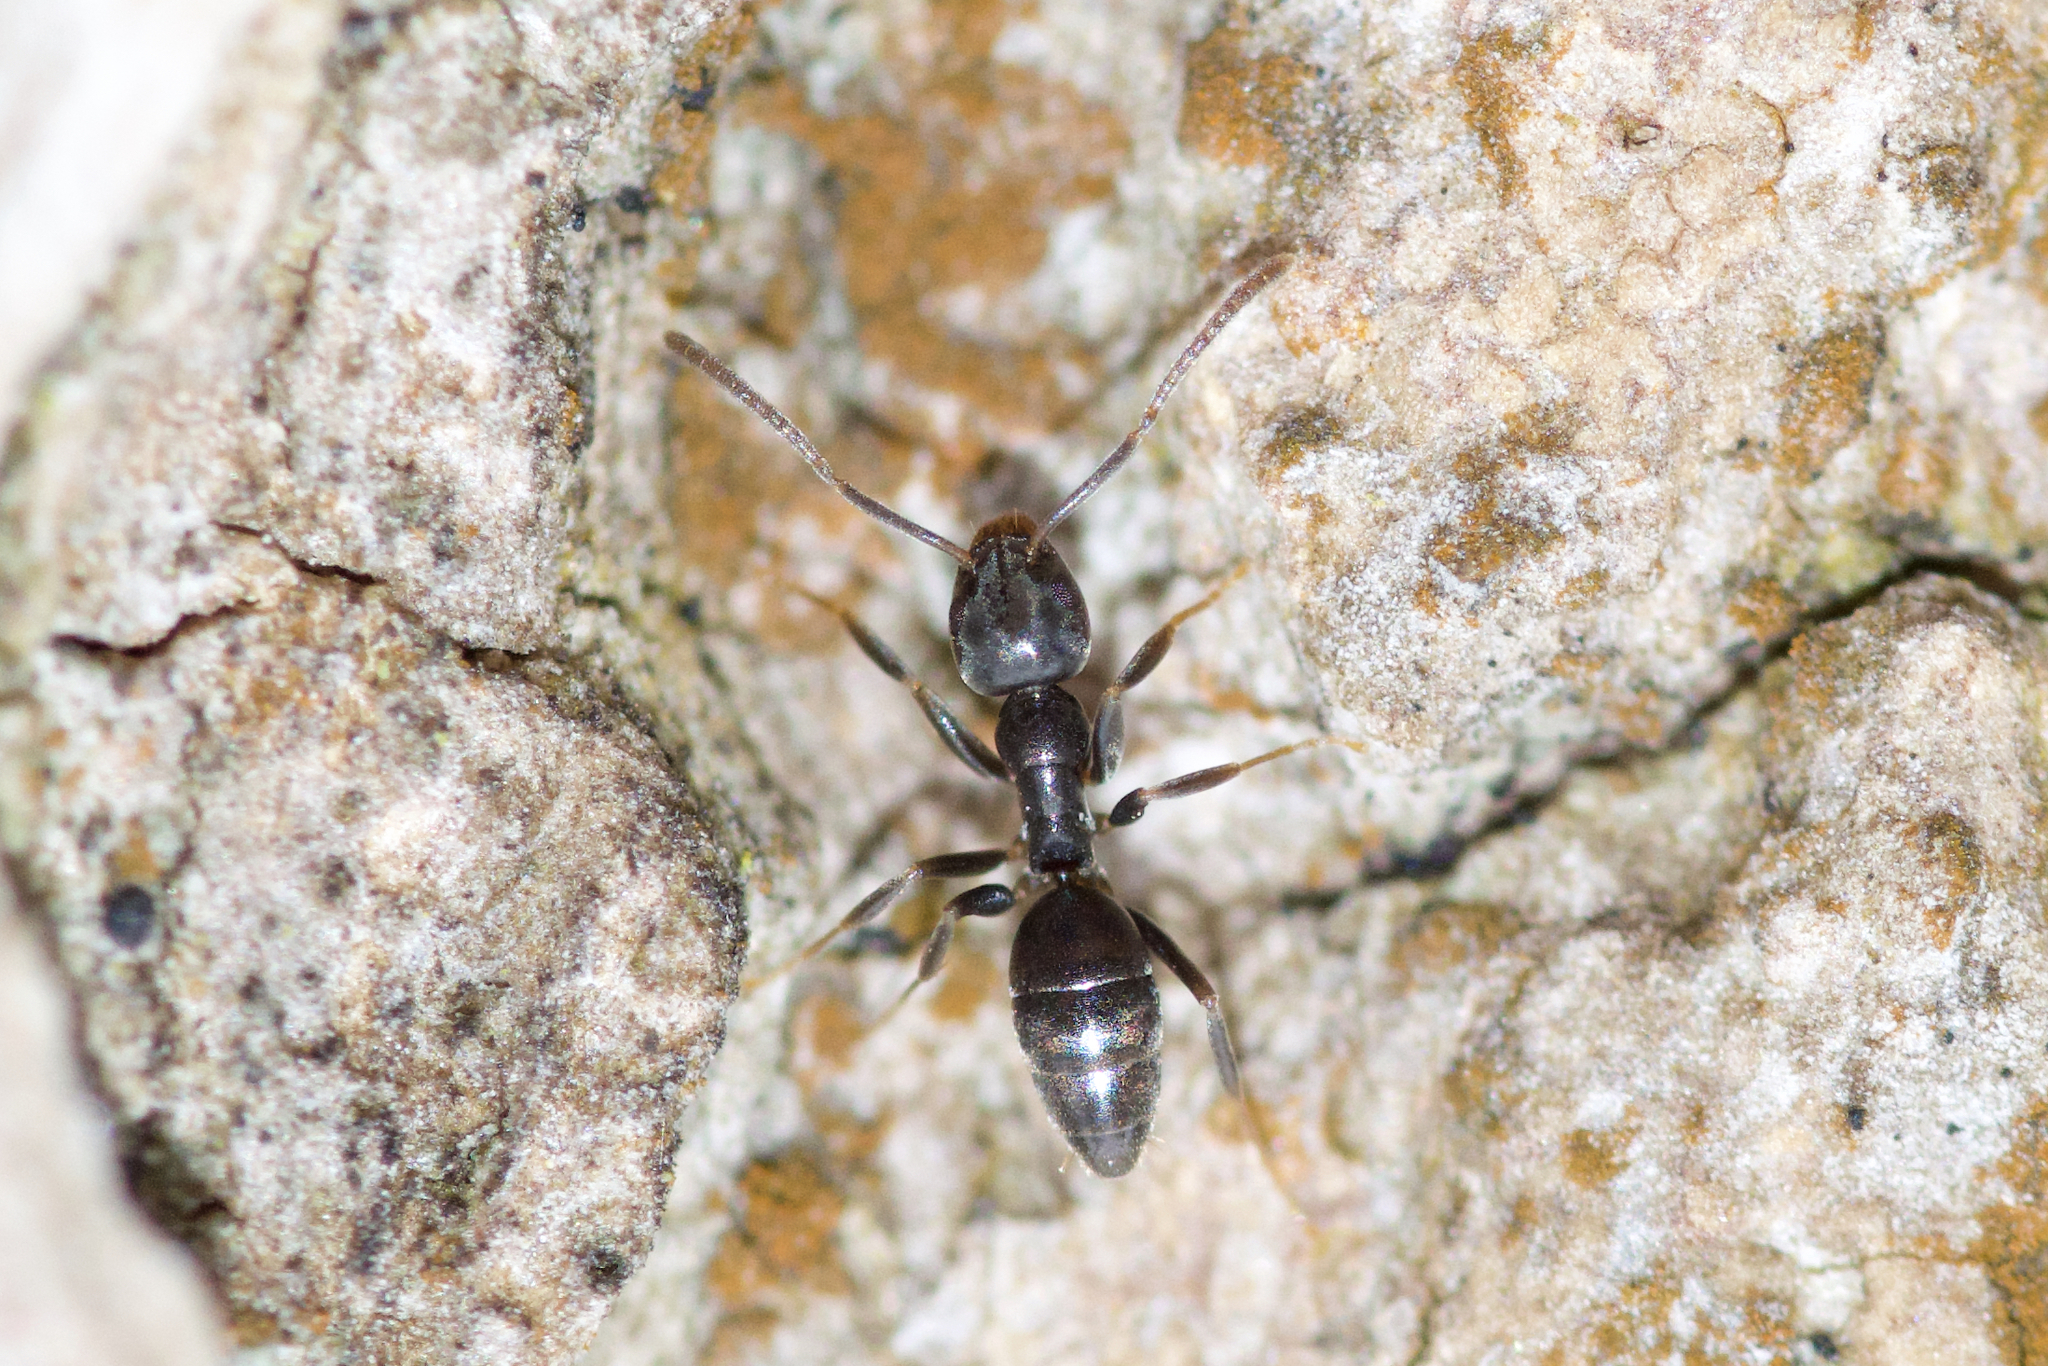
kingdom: Animalia
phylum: Arthropoda
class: Insecta
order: Hymenoptera
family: Formicidae
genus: Tapinoma
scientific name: Tapinoma sessile
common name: Odorous house ant
